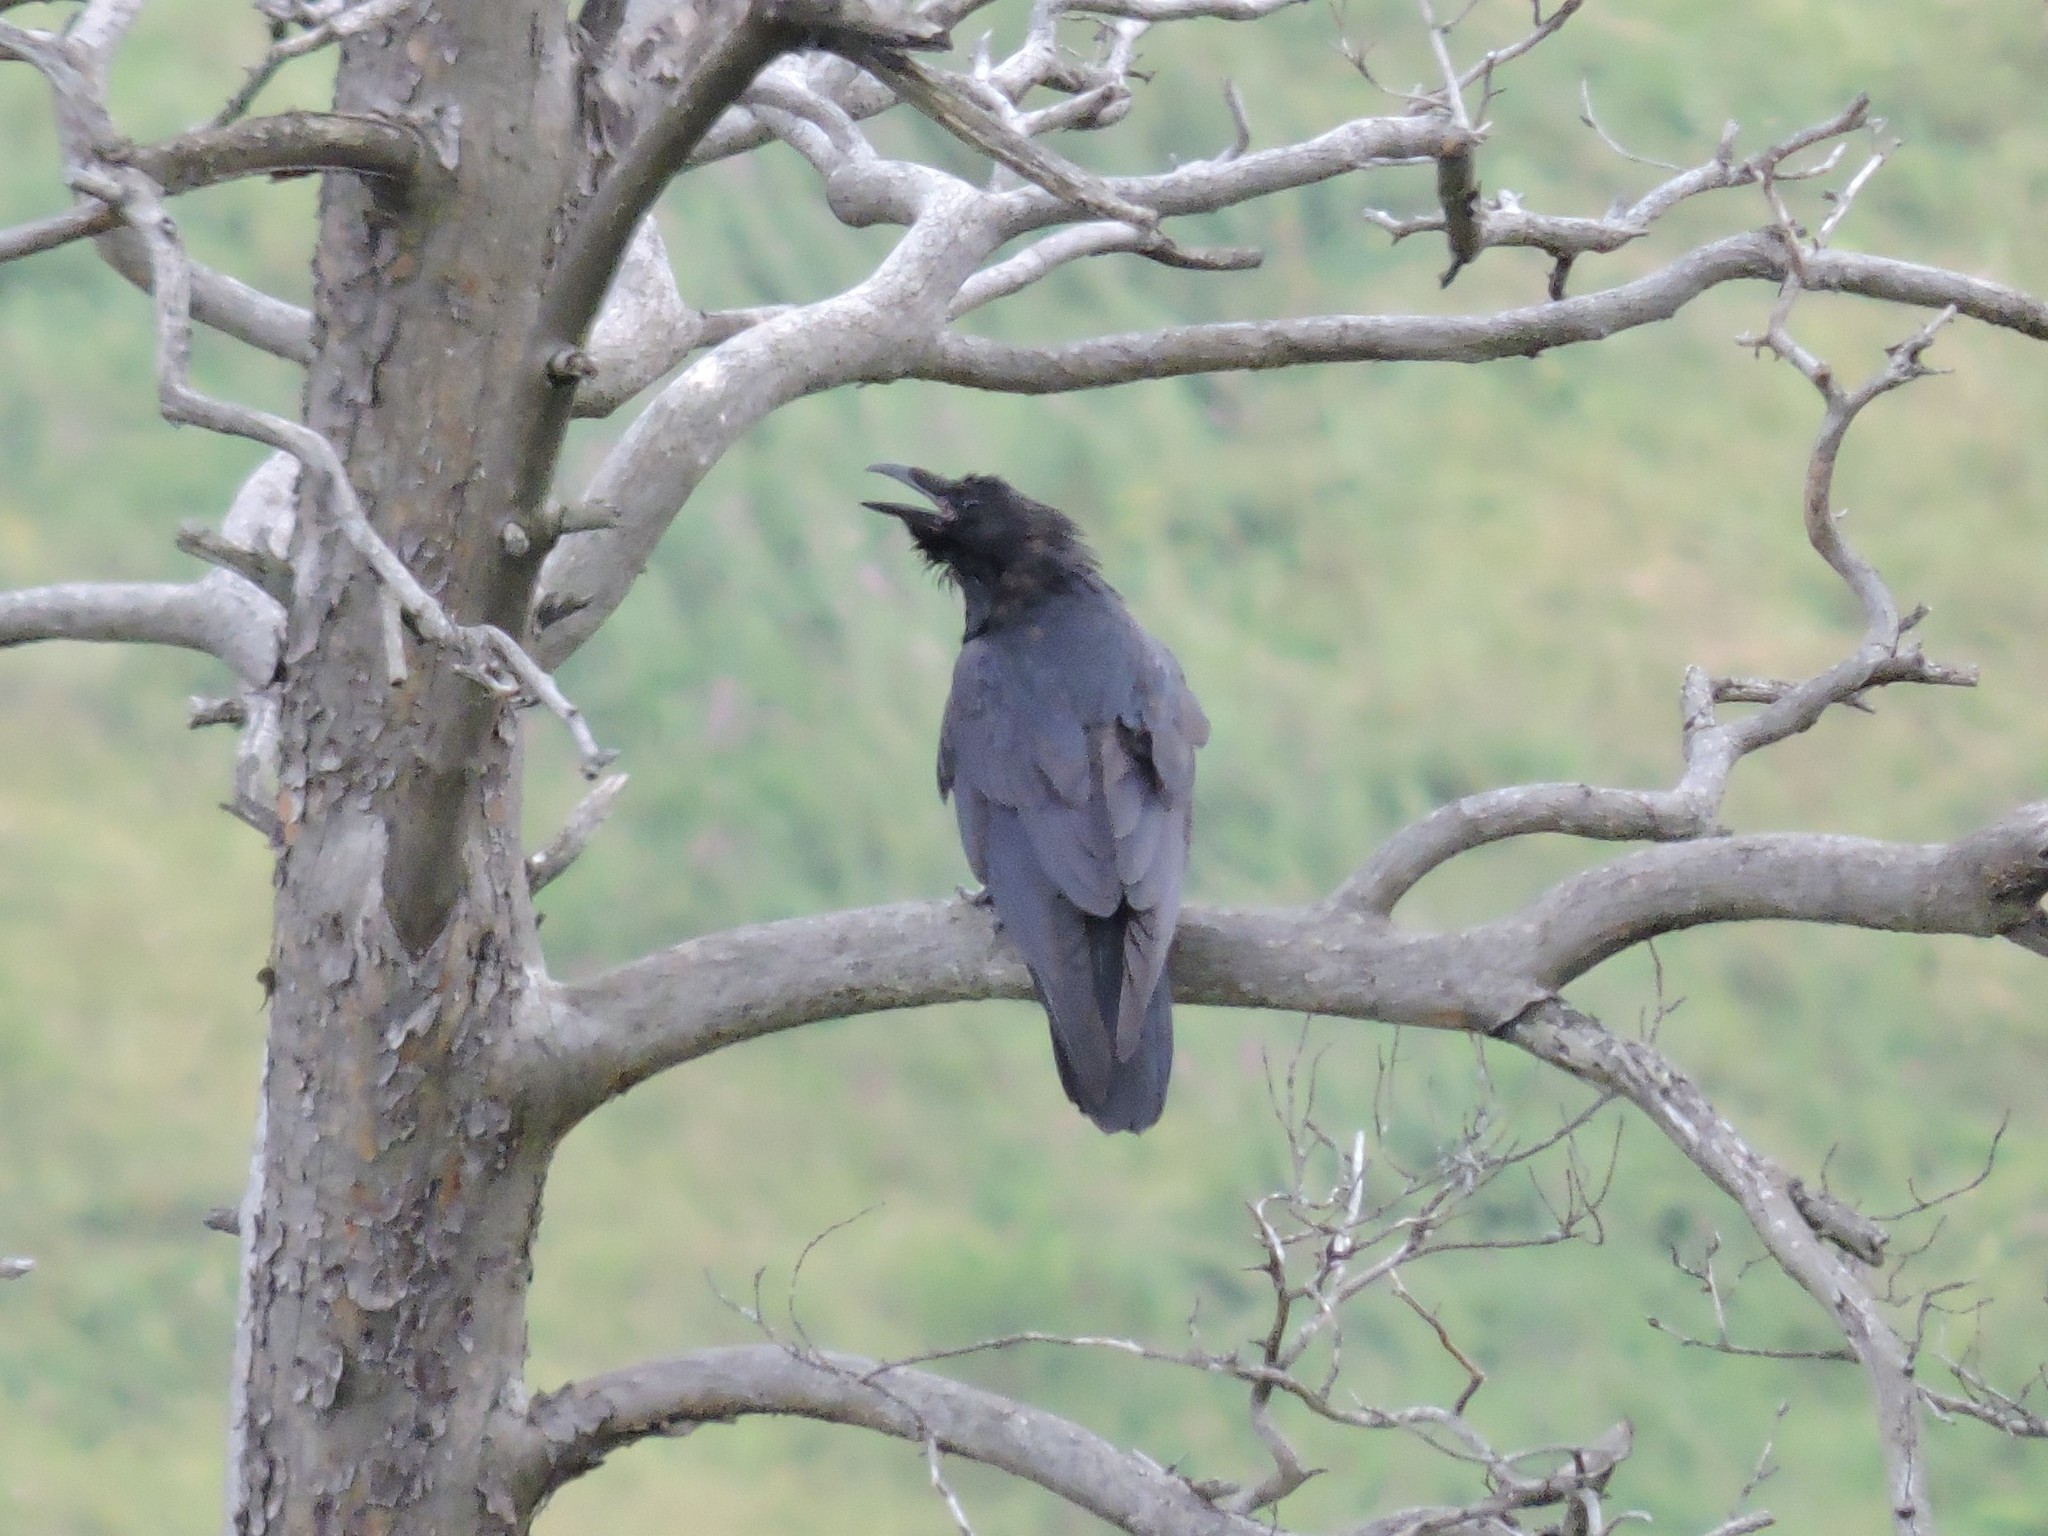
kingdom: Animalia
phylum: Chordata
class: Aves
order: Passeriformes
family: Corvidae
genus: Corvus
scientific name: Corvus corax
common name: Common raven
